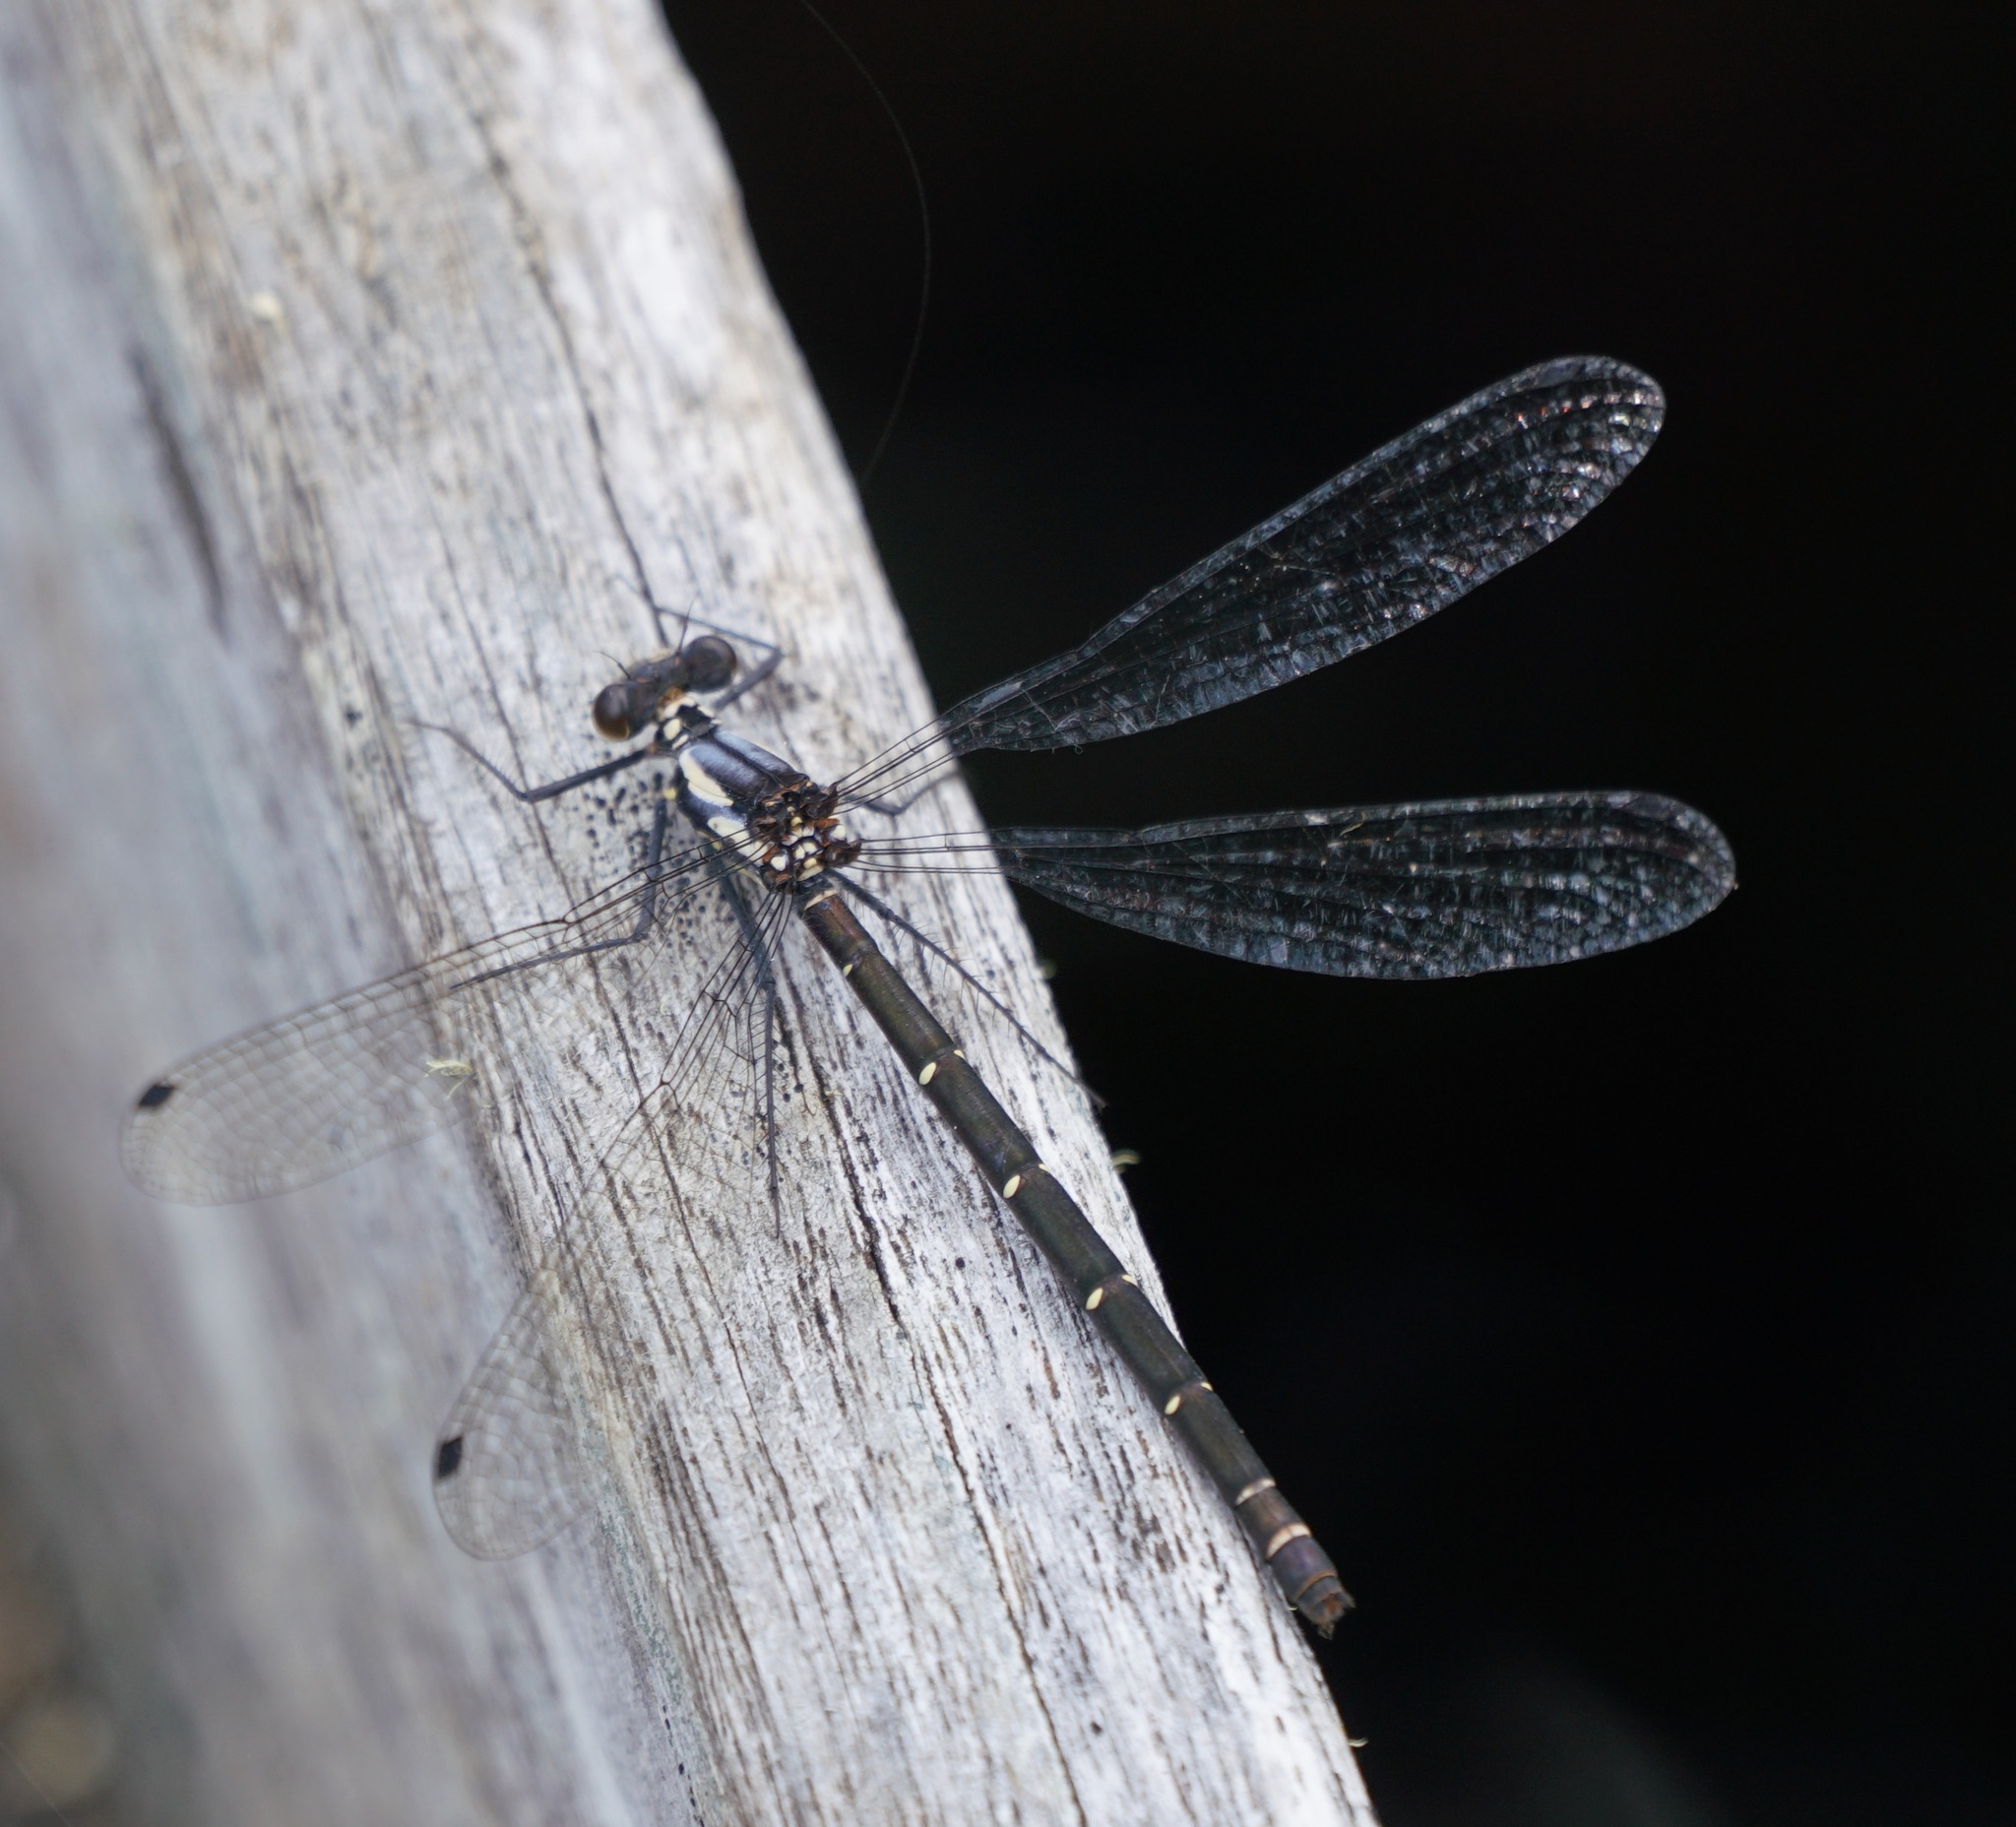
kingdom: Animalia
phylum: Arthropoda
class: Insecta
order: Odonata
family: Argiolestidae
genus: Austroargiolestes
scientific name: Austroargiolestes christine
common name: Milky flatwing
